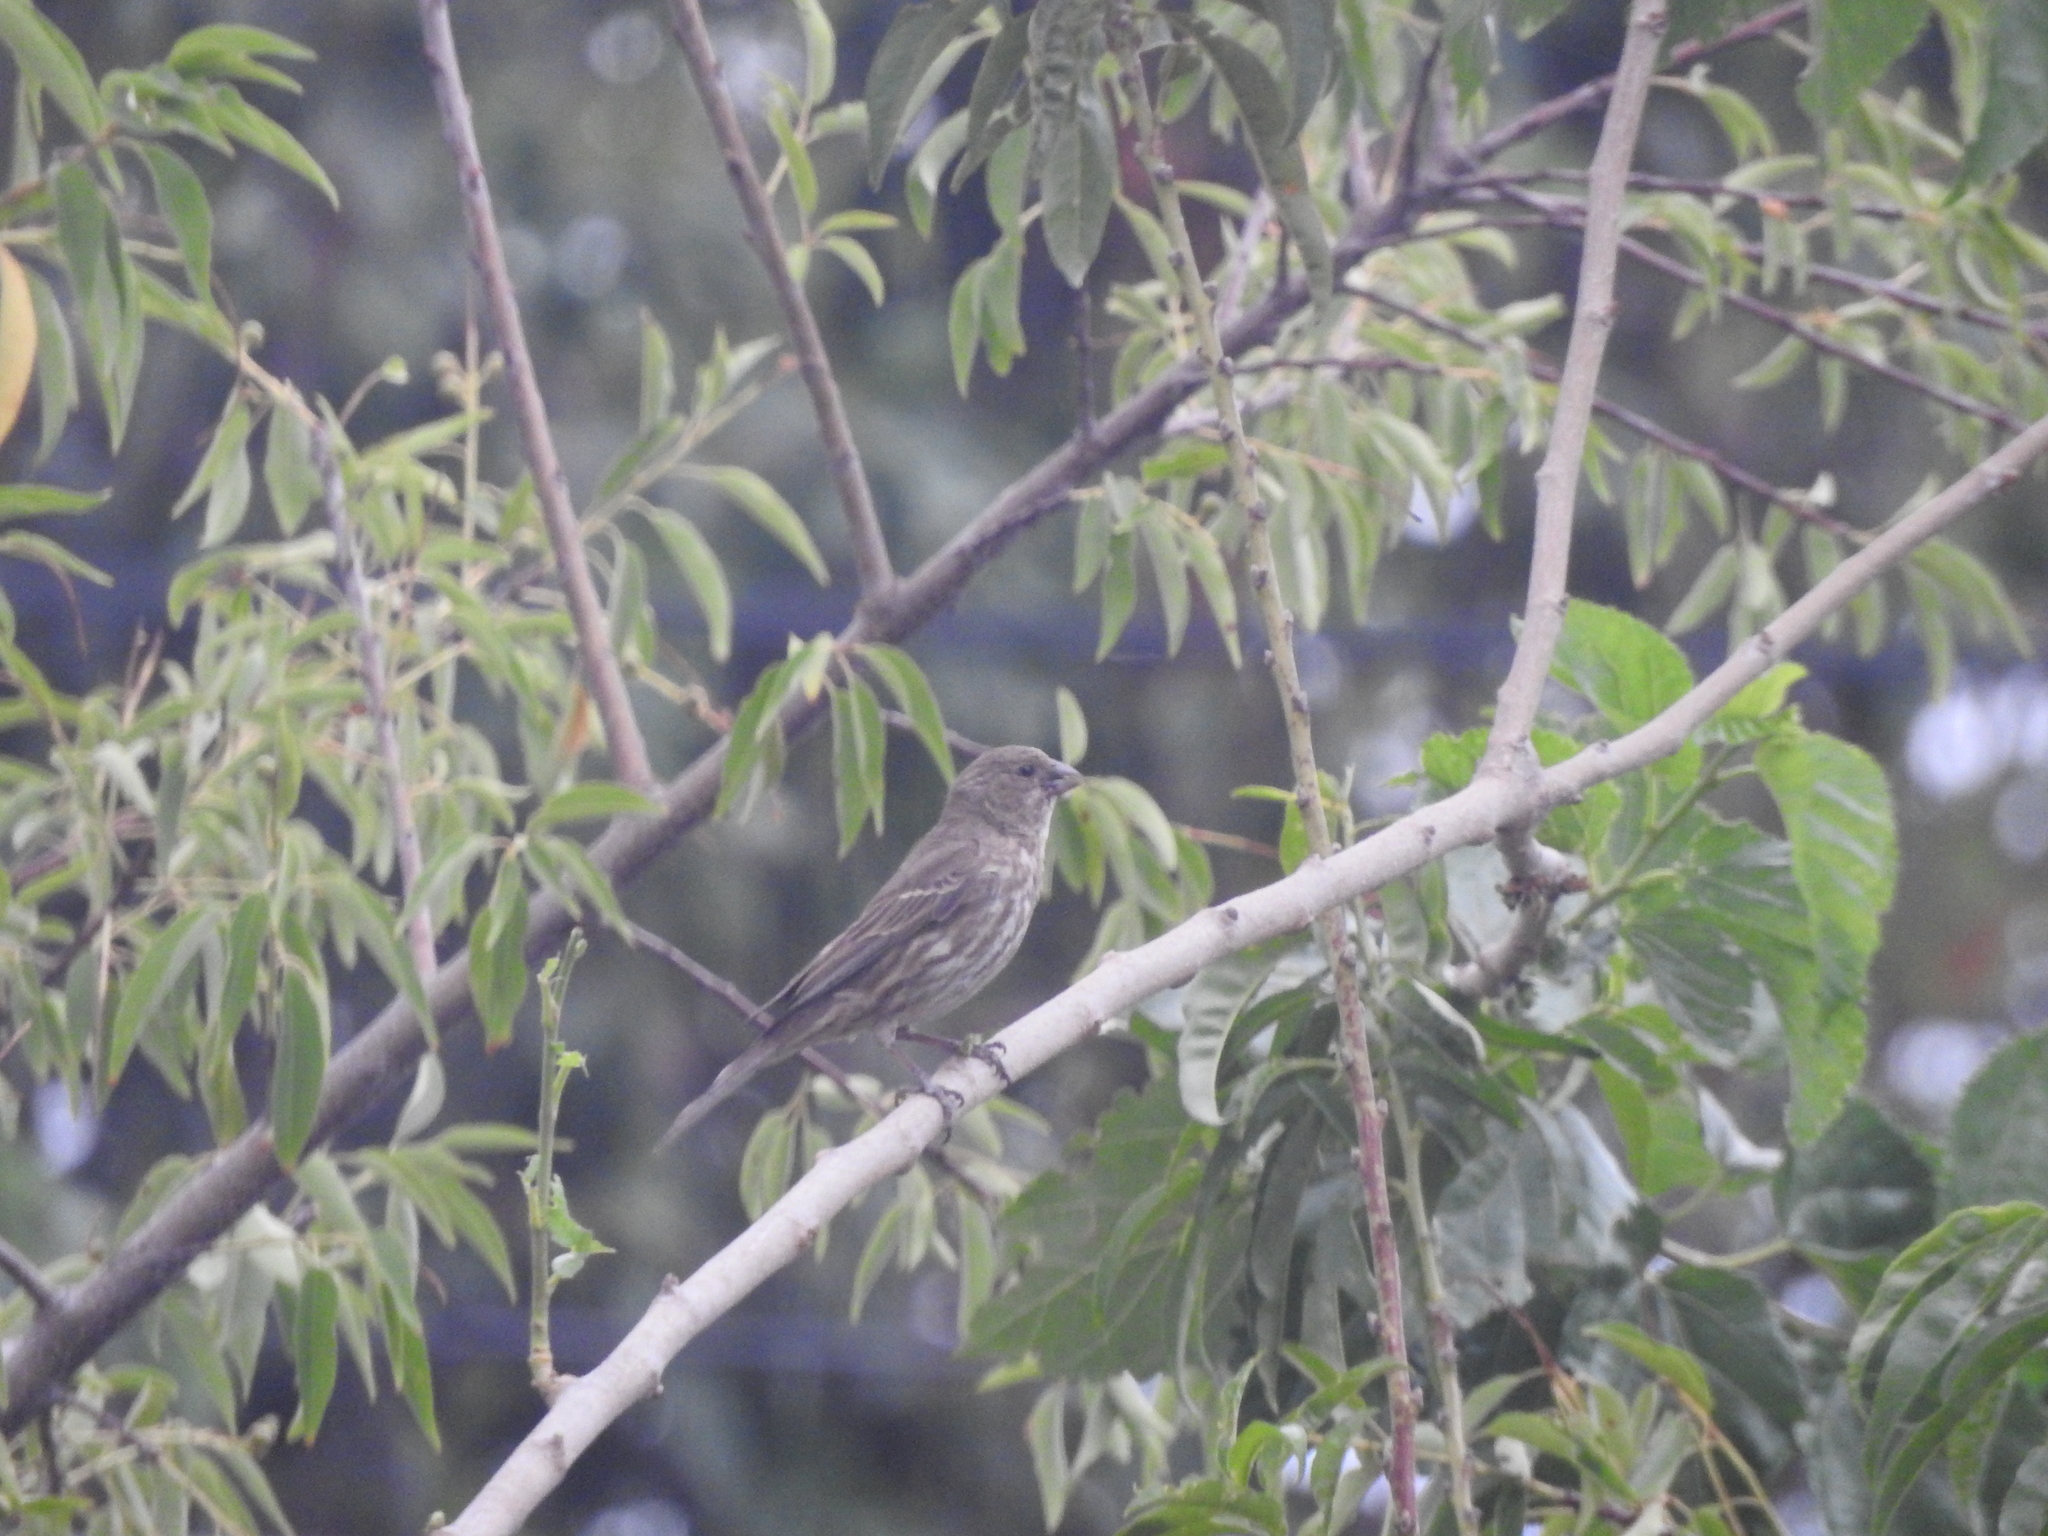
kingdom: Animalia
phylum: Chordata
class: Aves
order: Passeriformes
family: Fringillidae
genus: Haemorhous
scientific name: Haemorhous mexicanus
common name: House finch
